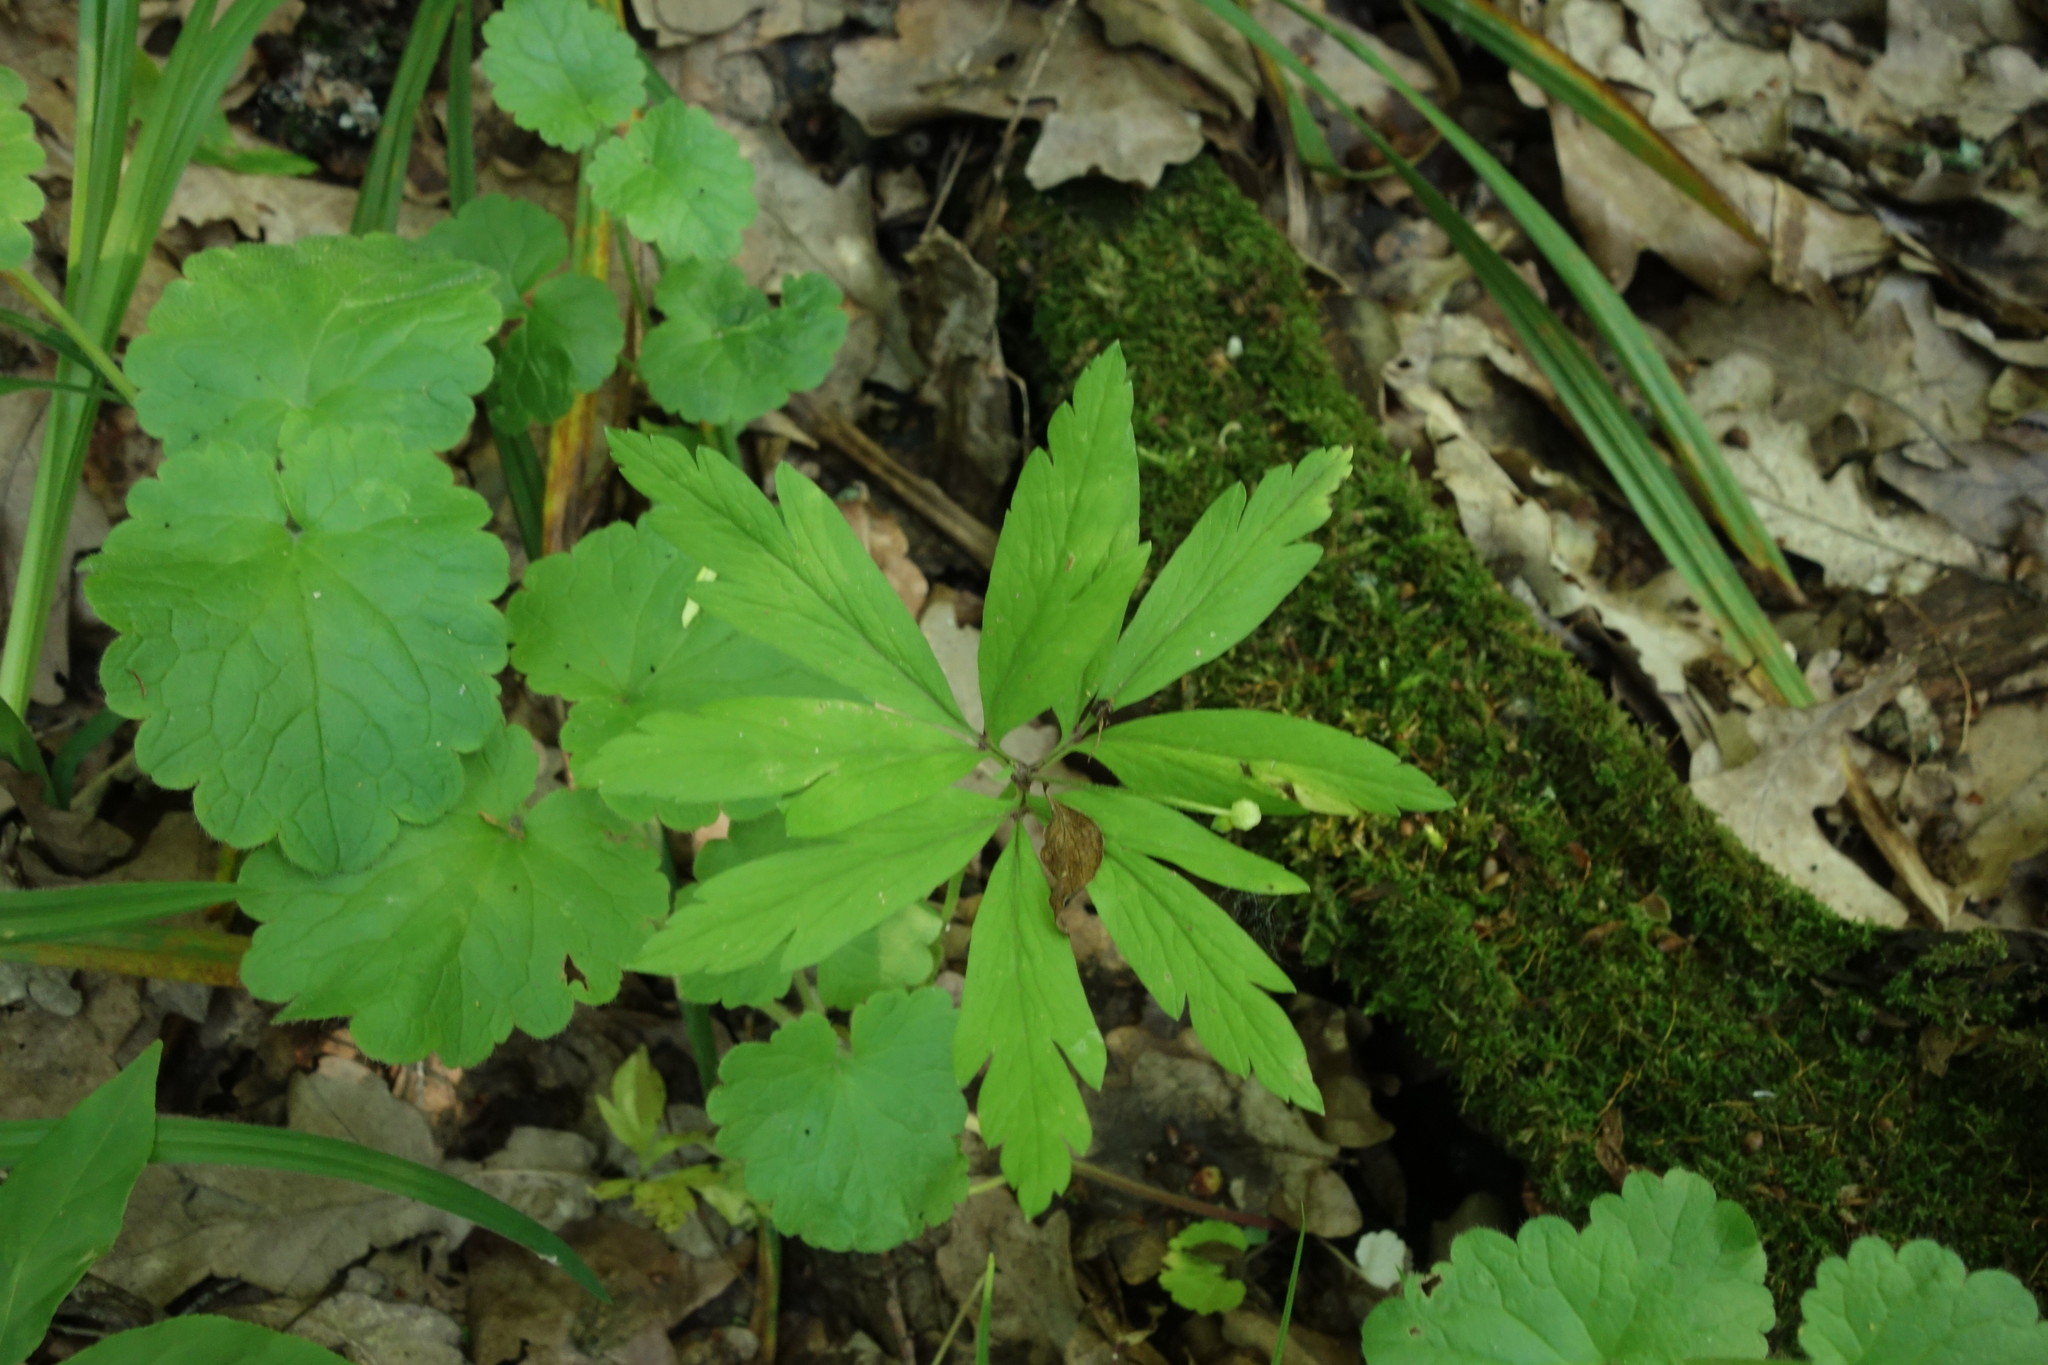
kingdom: Plantae
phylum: Tracheophyta
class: Magnoliopsida
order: Ranunculales
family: Ranunculaceae
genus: Anemone
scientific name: Anemone ranunculoides
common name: Yellow anemone
